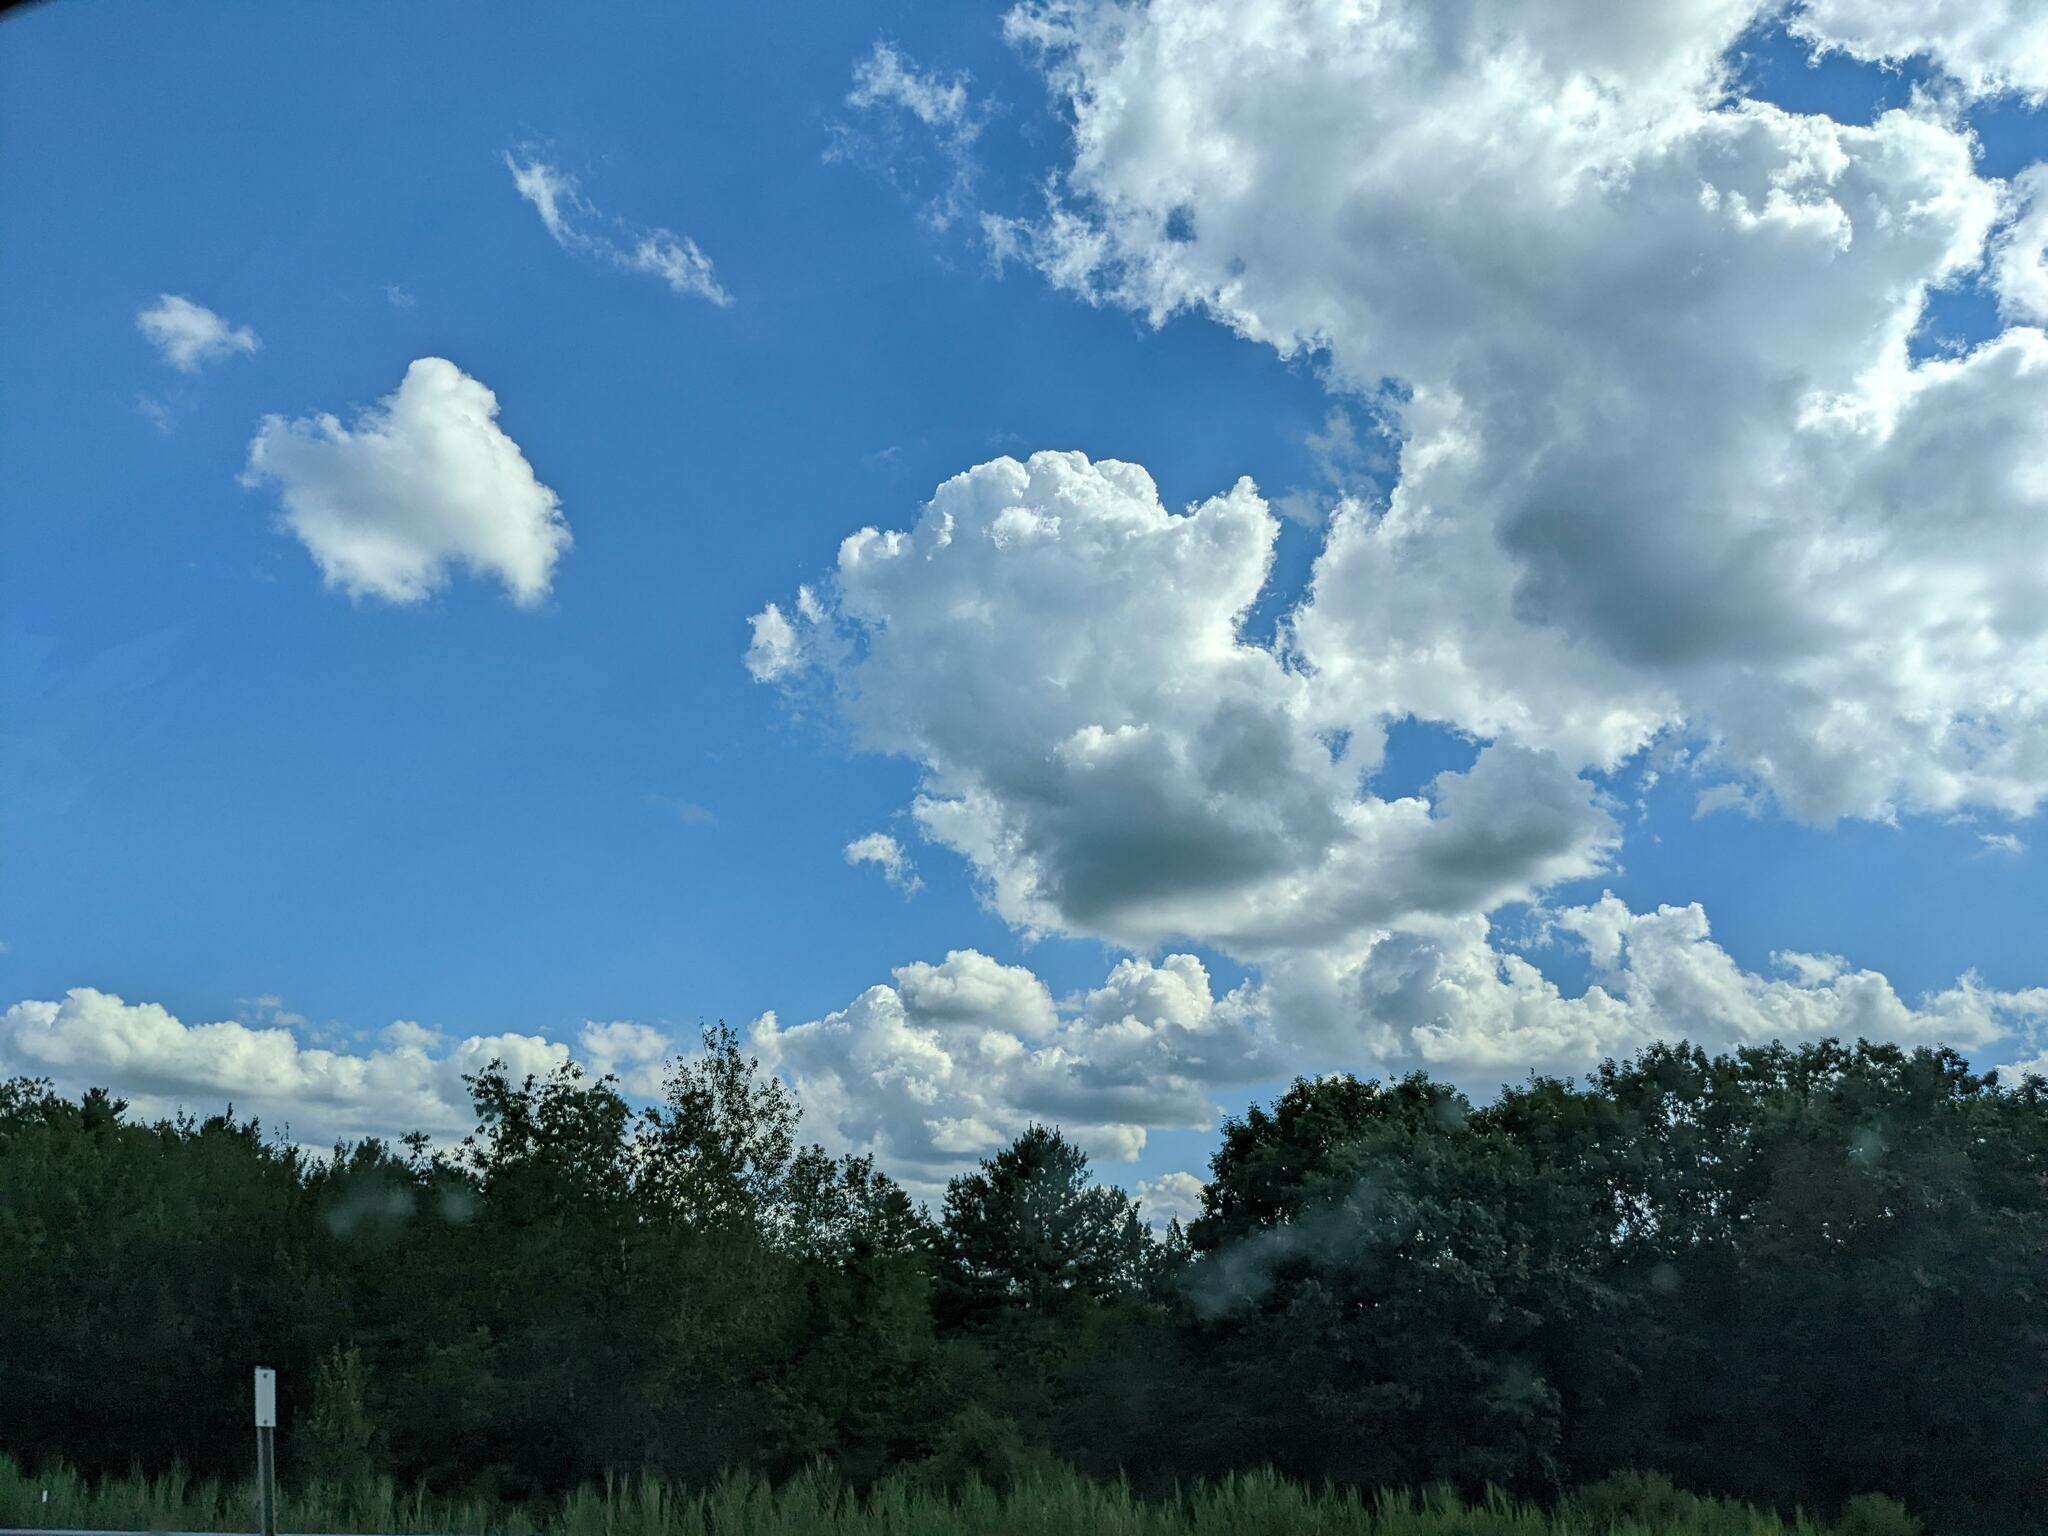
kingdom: Plantae
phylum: Tracheophyta
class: Pinopsida
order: Pinales
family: Pinaceae
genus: Pinus
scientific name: Pinus strobus
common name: Weymouth pine
